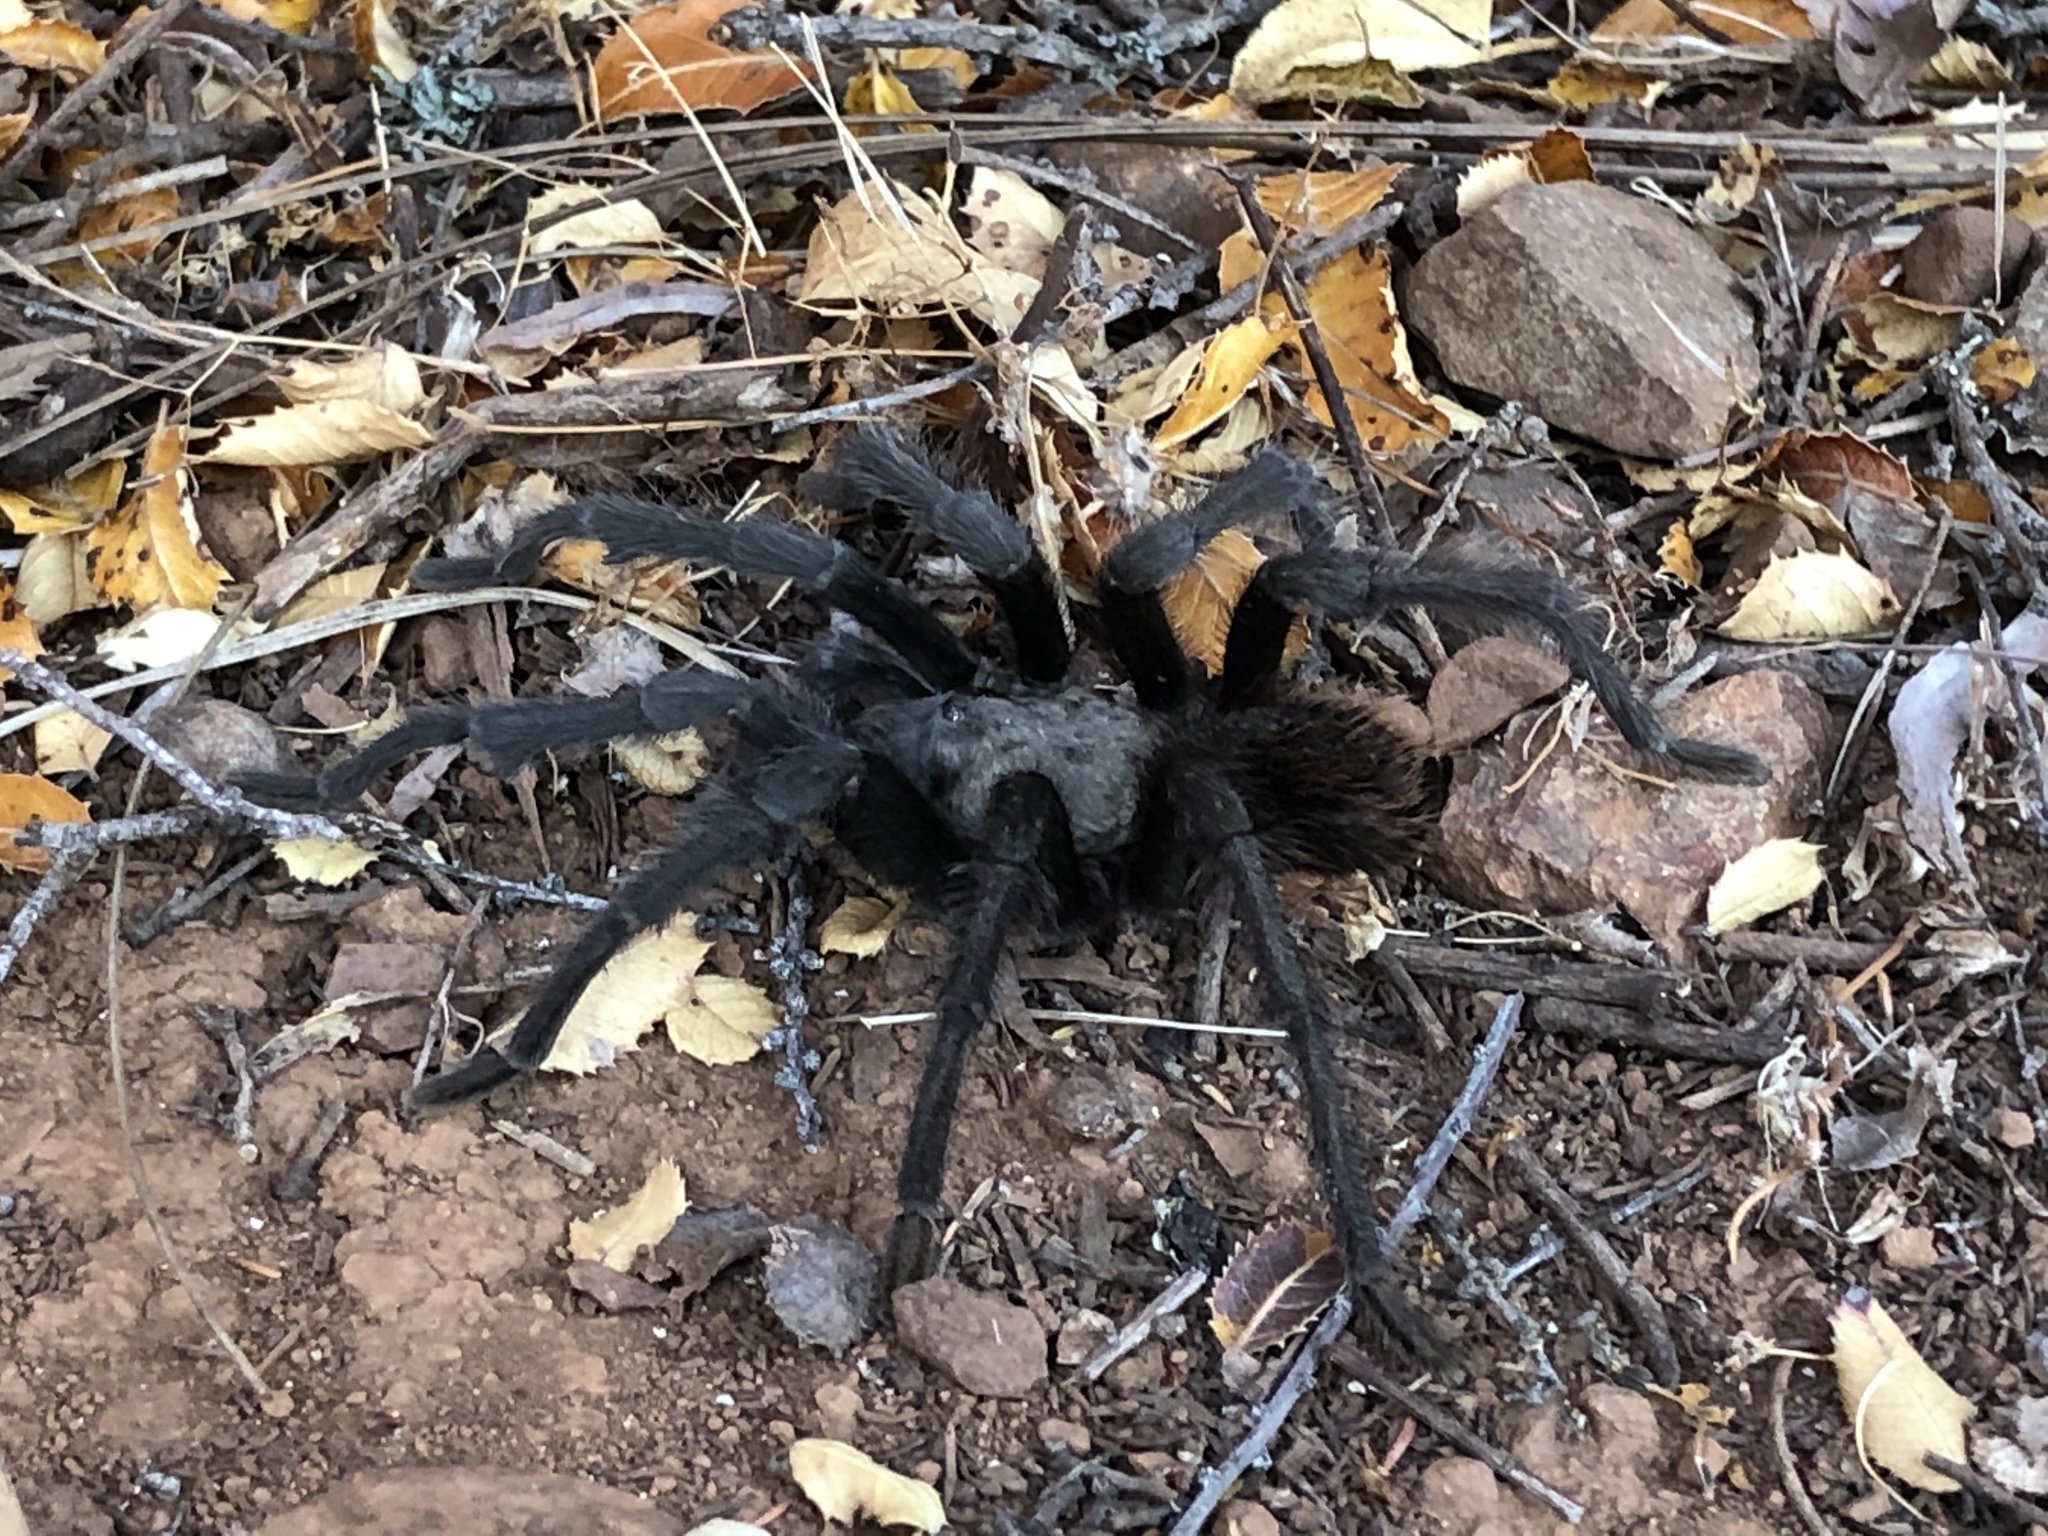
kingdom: Animalia
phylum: Arthropoda
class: Arachnida
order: Araneae
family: Theraphosidae
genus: Aphonopelma
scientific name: Aphonopelma iodius
